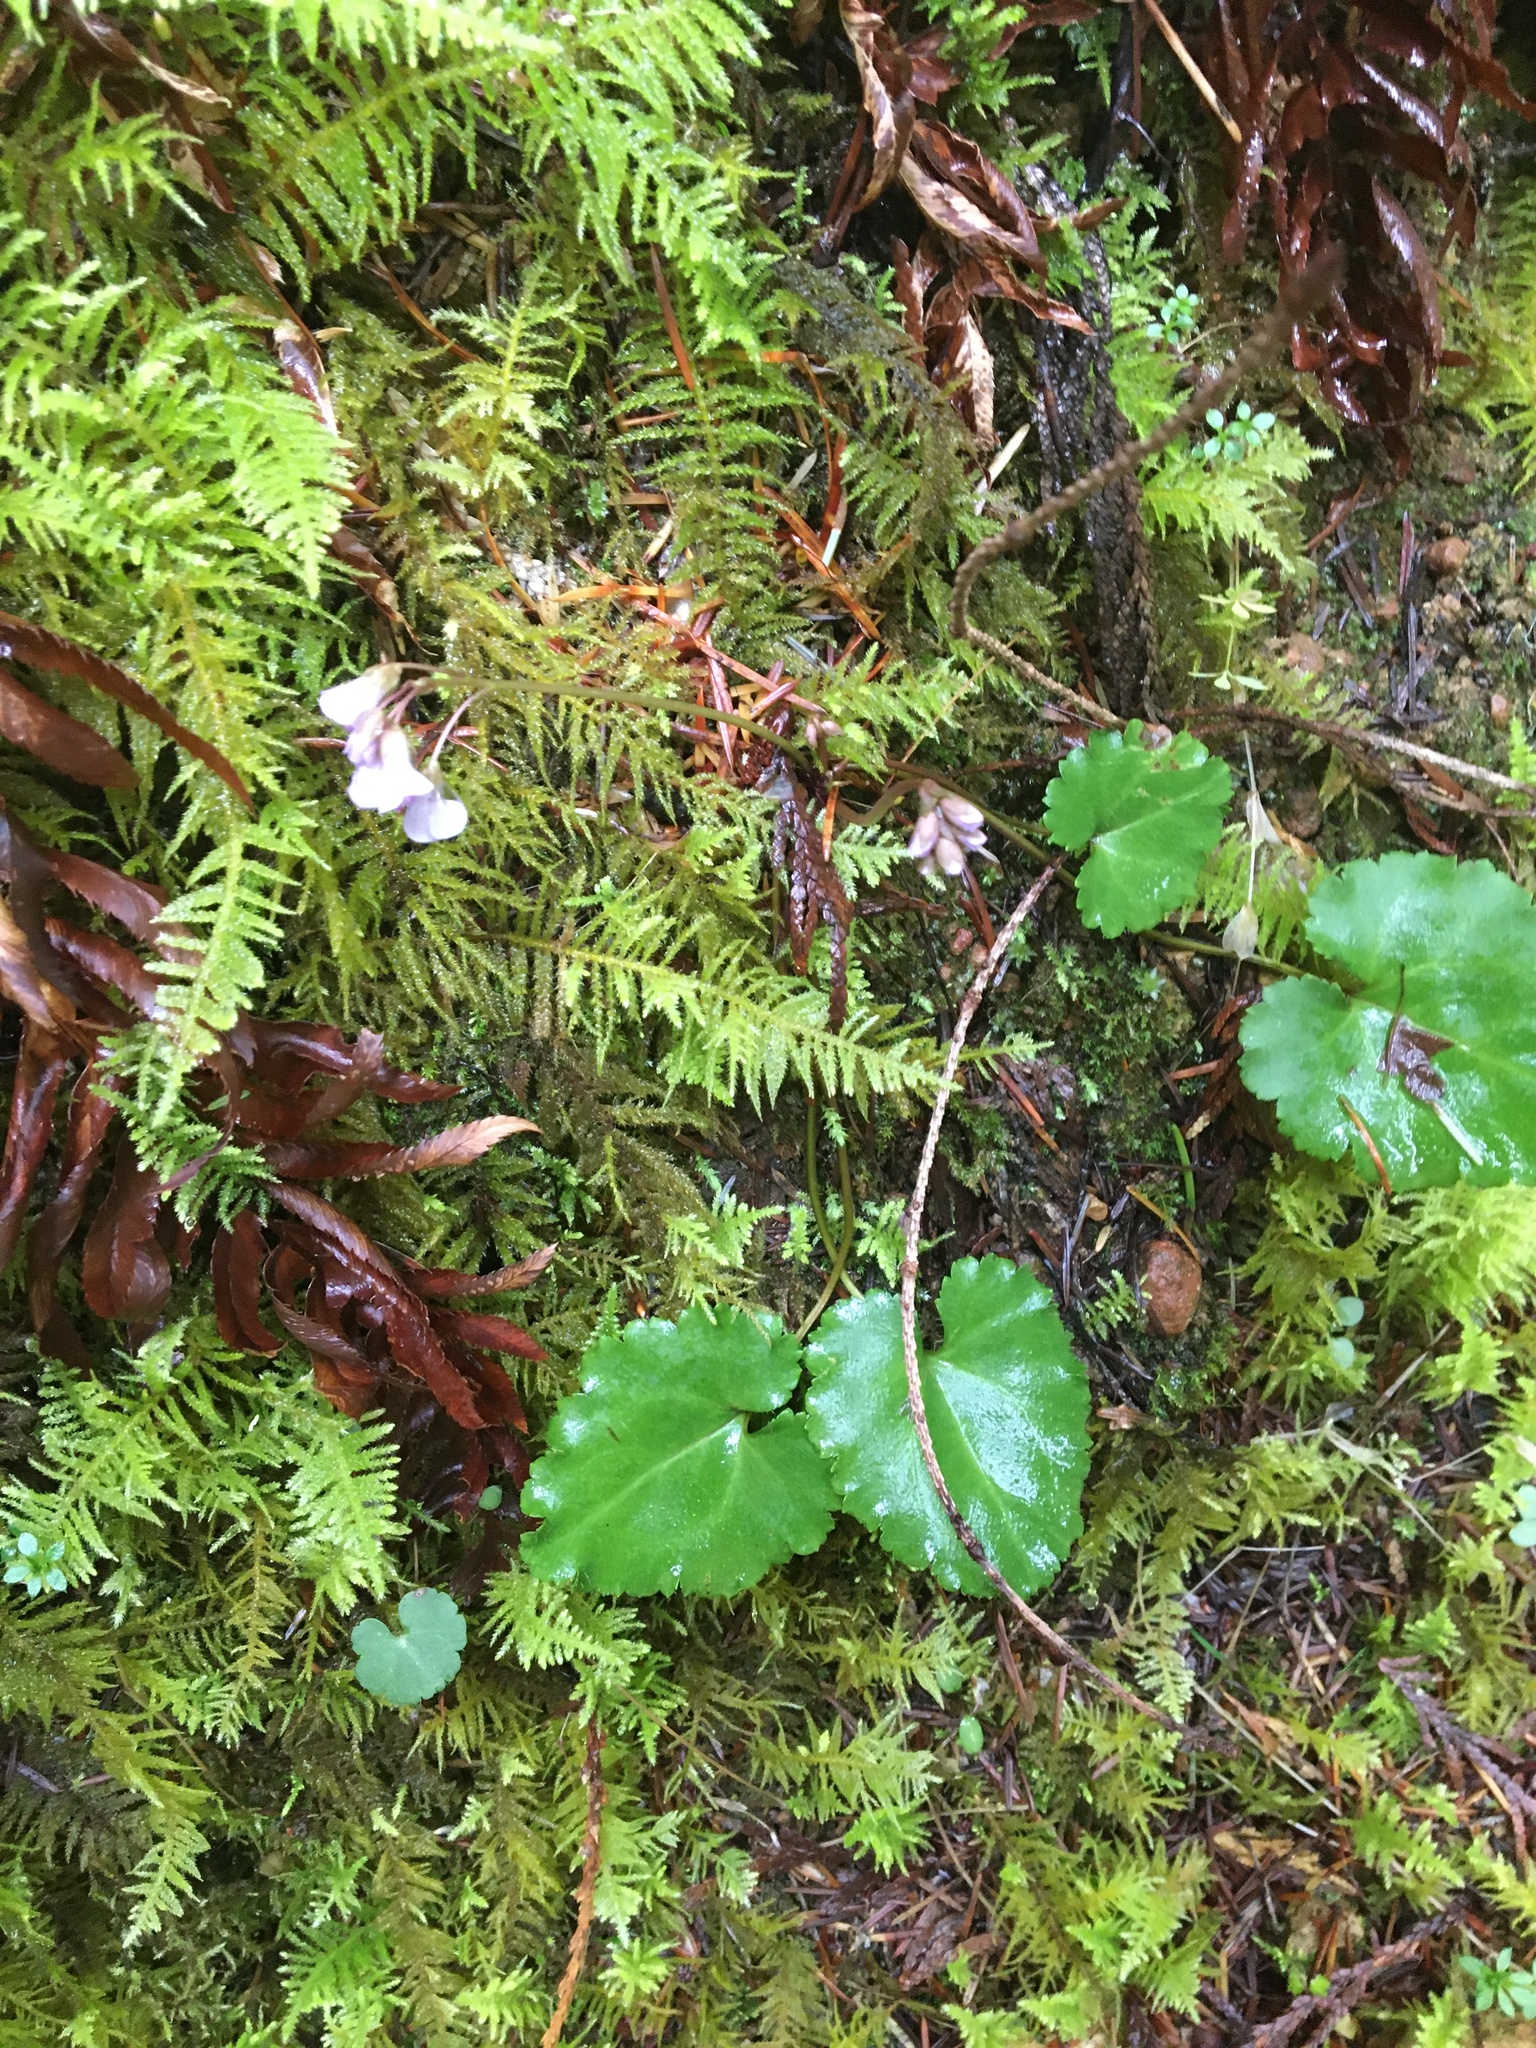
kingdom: Plantae
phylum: Tracheophyta
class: Magnoliopsida
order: Lamiales
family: Plantaginaceae
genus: Synthyris
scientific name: Synthyris reniformis
